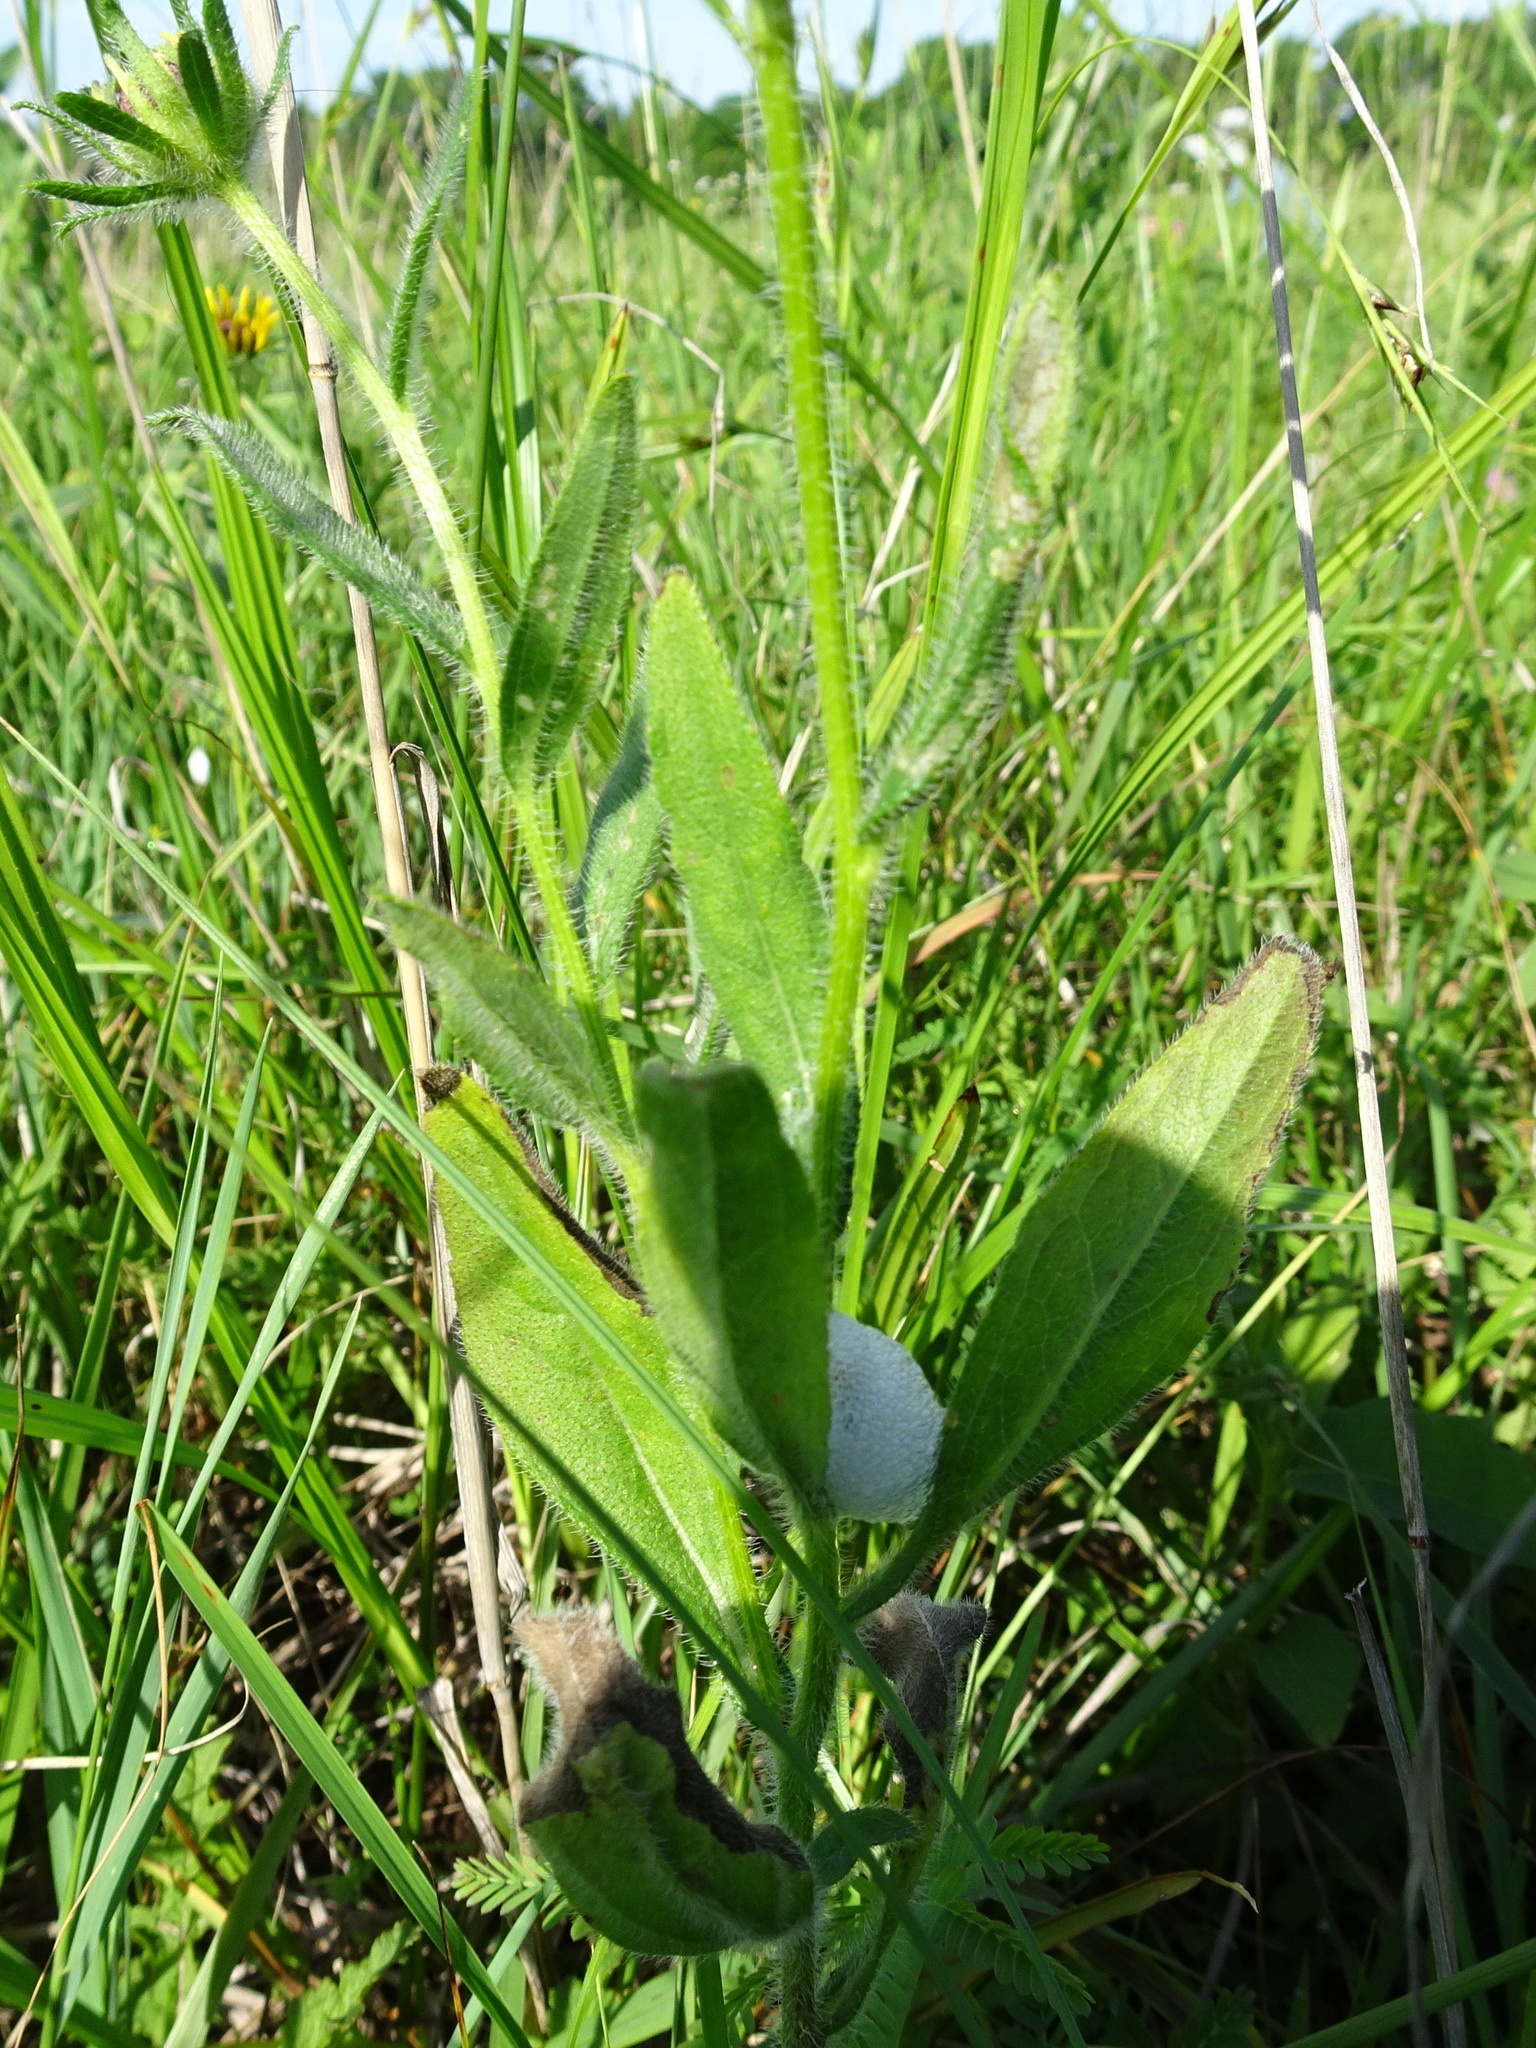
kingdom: Plantae
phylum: Tracheophyta
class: Magnoliopsida
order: Asterales
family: Asteraceae
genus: Rudbeckia
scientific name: Rudbeckia hirta
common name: Black-eyed-susan
